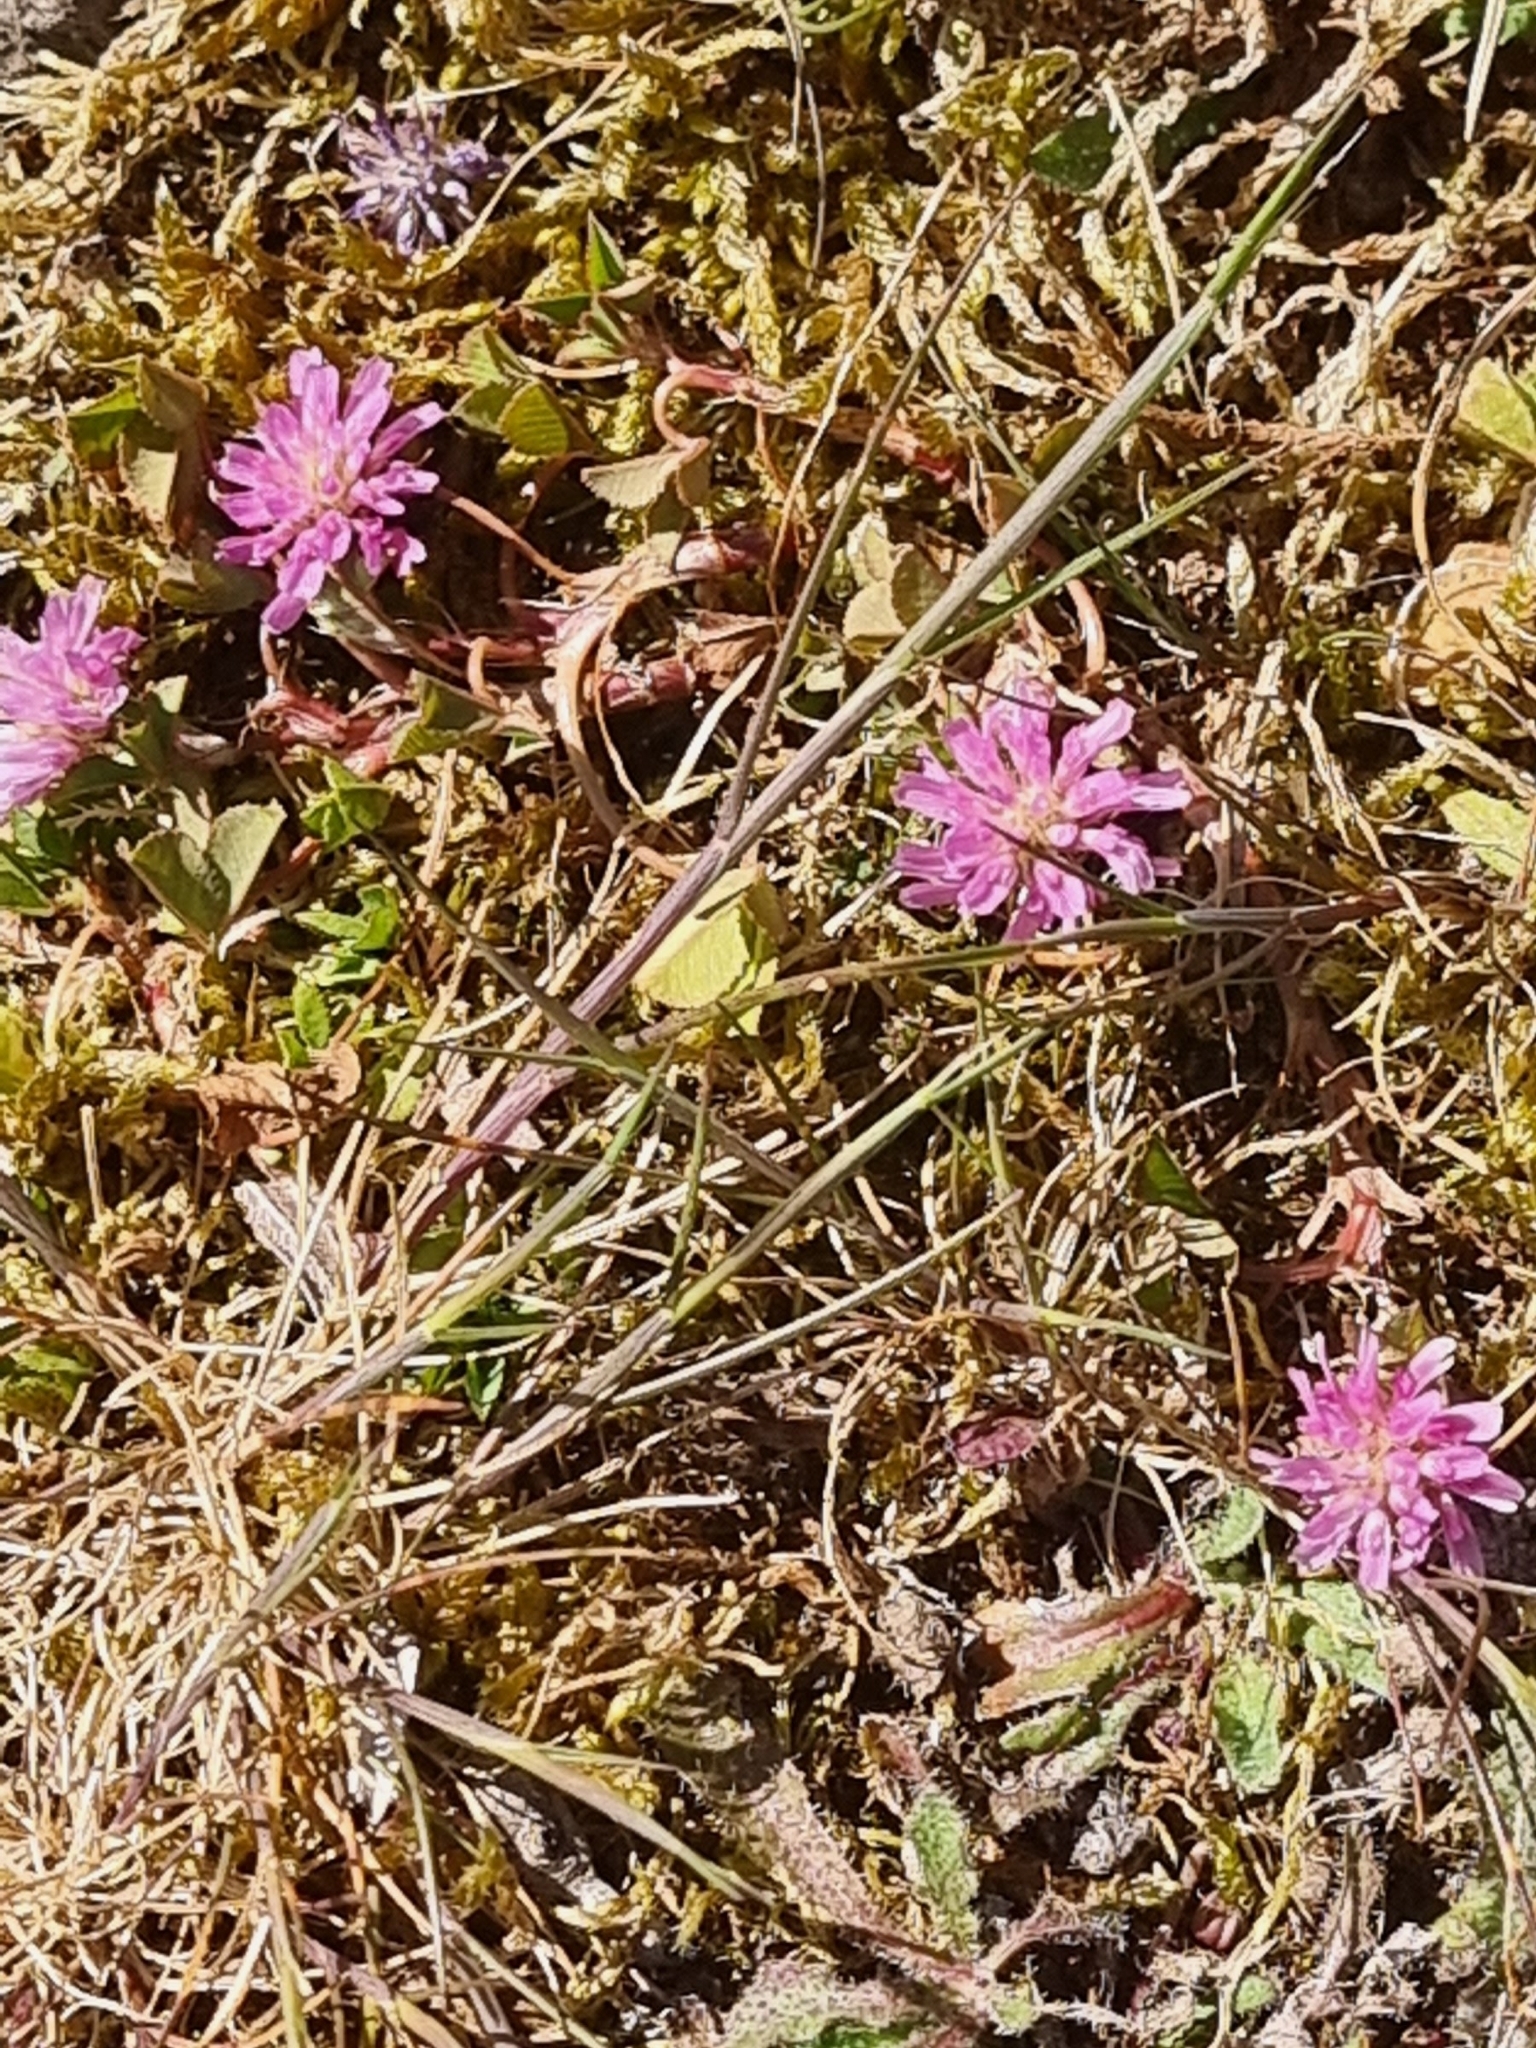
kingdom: Plantae
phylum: Tracheophyta
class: Magnoliopsida
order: Fabales
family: Fabaceae
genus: Trifolium
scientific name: Trifolium resupinatum
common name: Reversed clover
